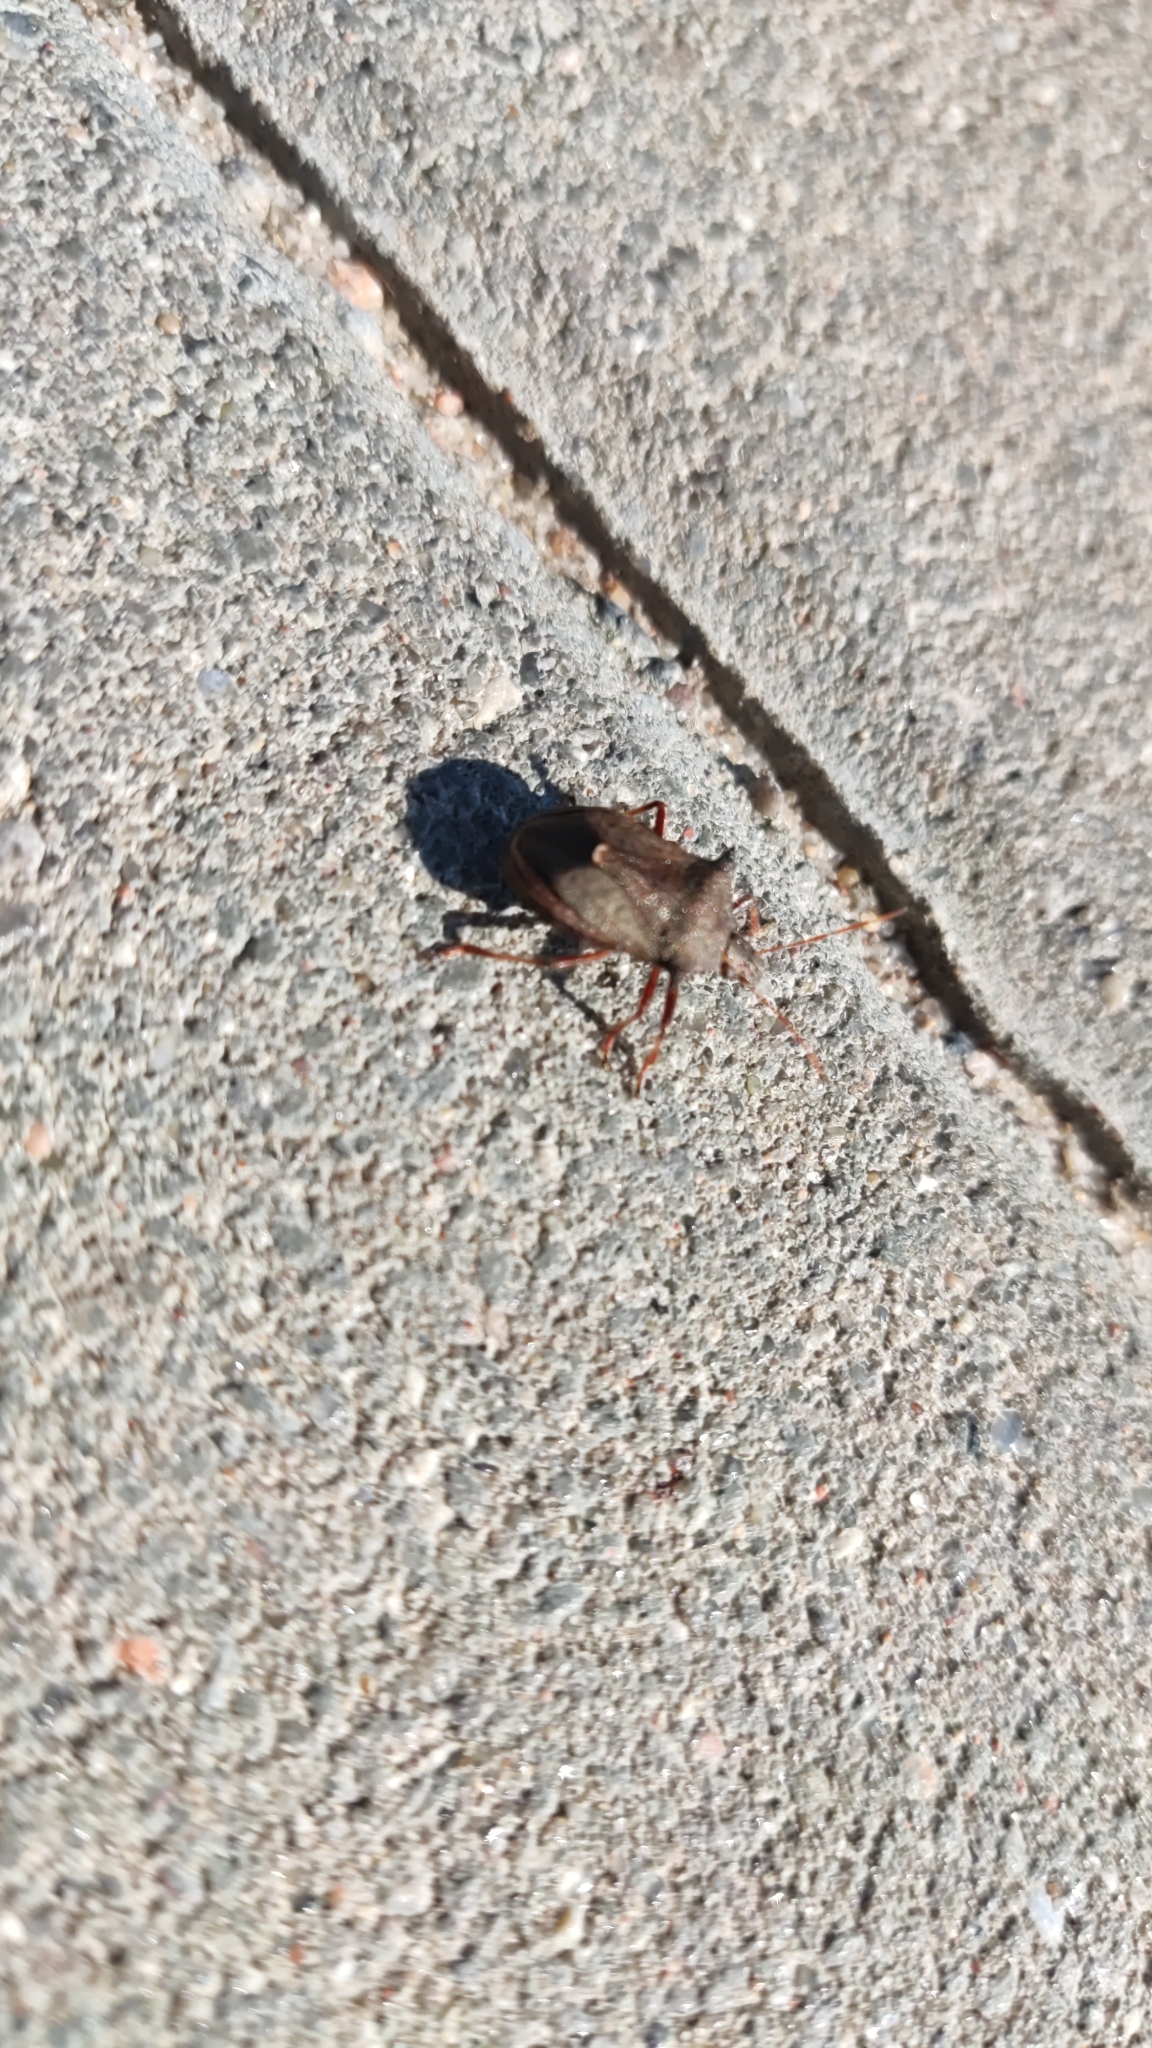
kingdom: Animalia
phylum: Arthropoda
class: Insecta
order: Hemiptera
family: Pentatomidae
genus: Picromerus
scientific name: Picromerus bidens
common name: Spiked shieldbug
